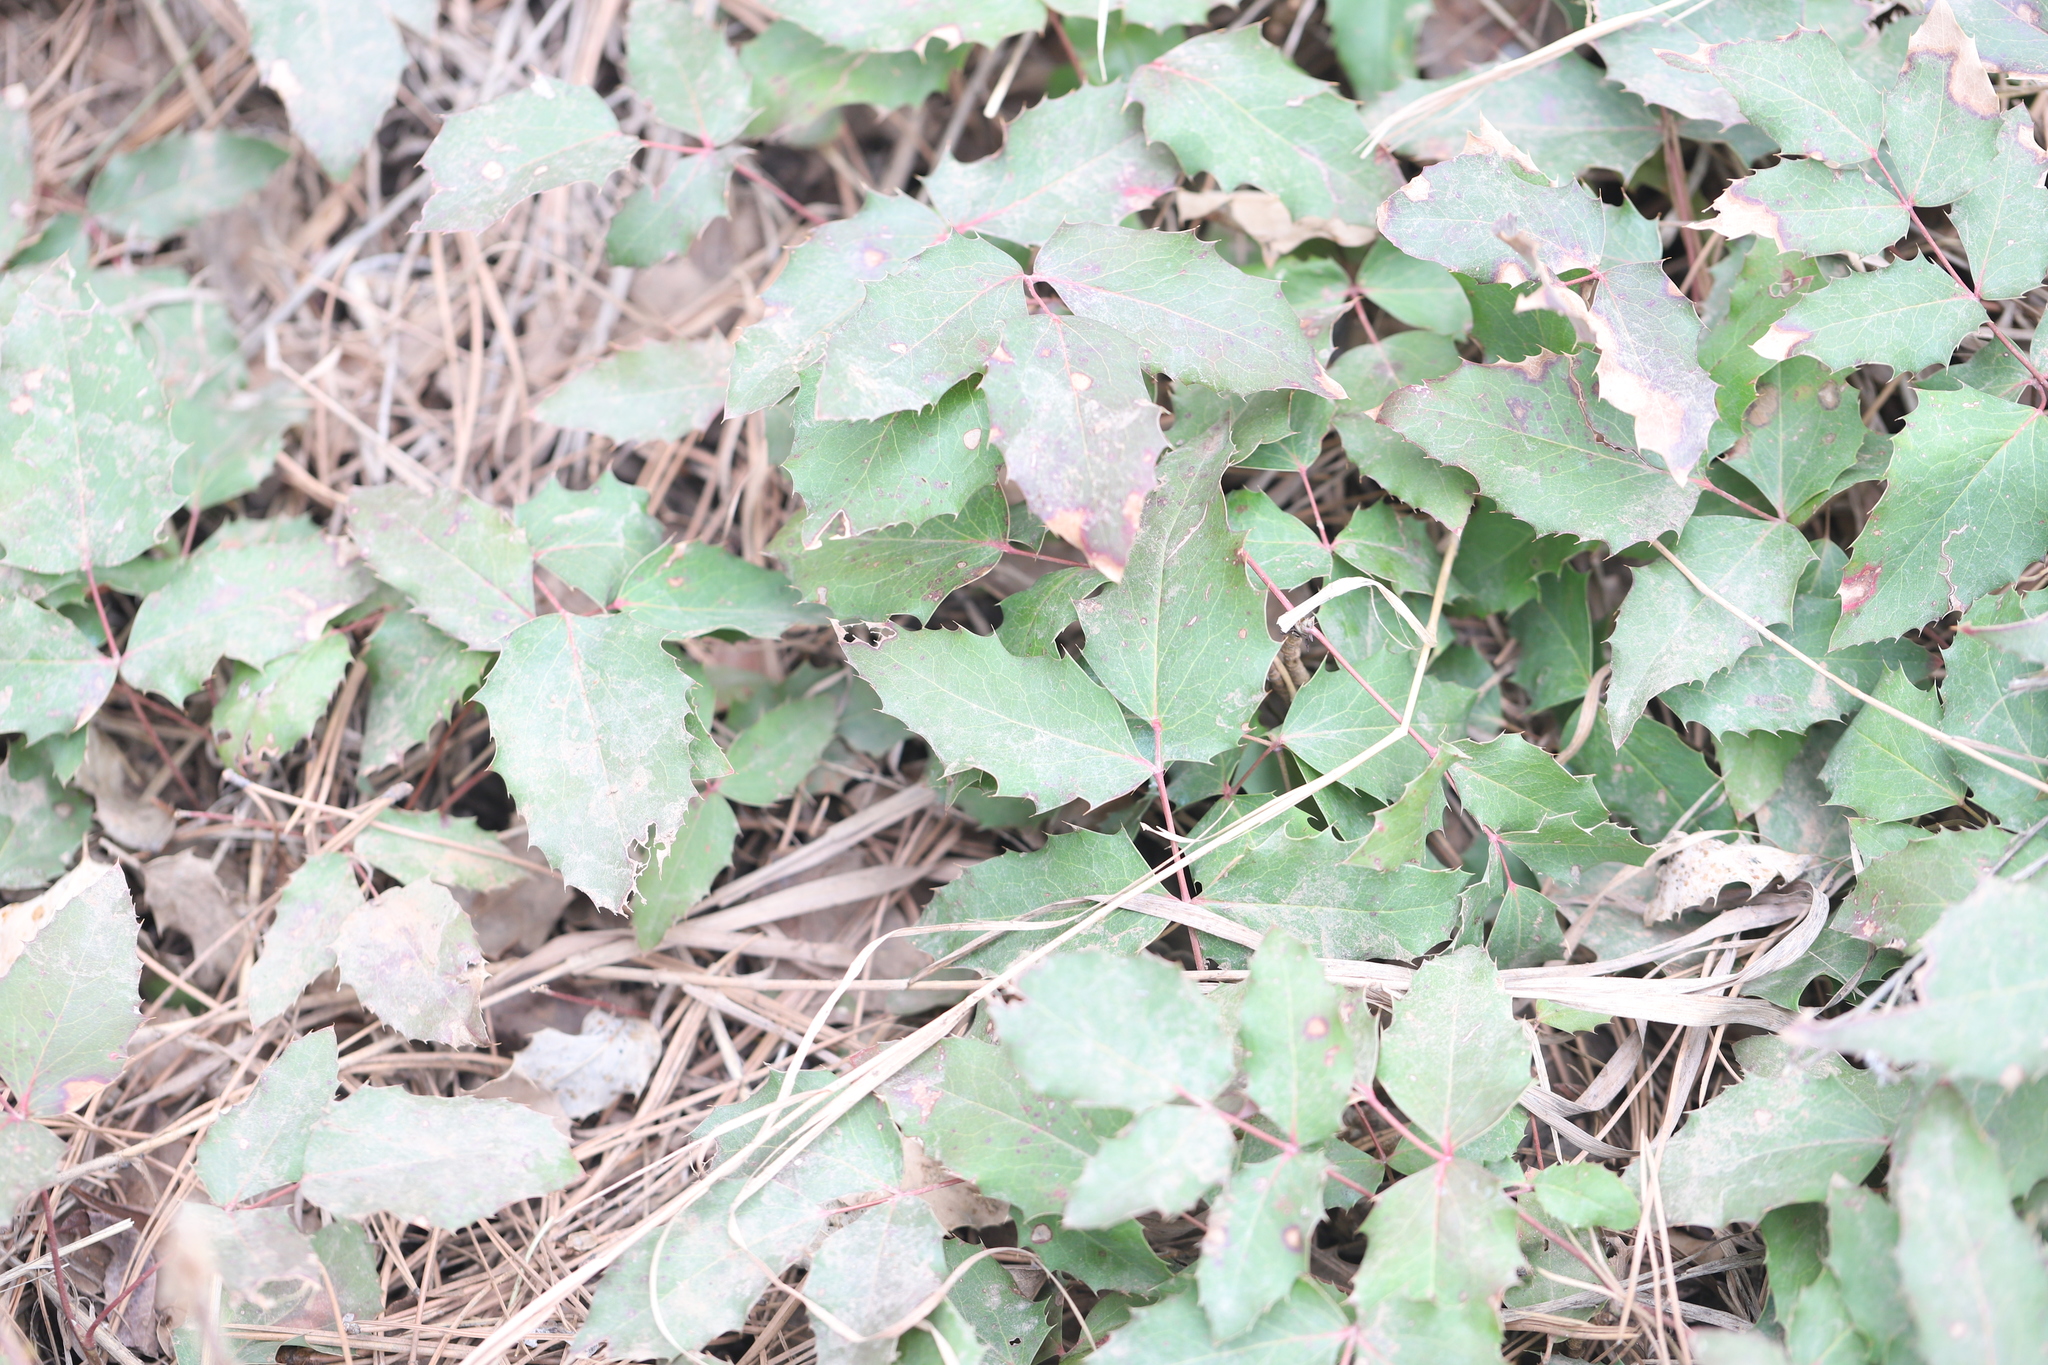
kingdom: Plantae
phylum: Tracheophyta
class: Magnoliopsida
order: Ranunculales
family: Berberidaceae
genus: Mahonia
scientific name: Mahonia repens
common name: Creeping oregon-grape
